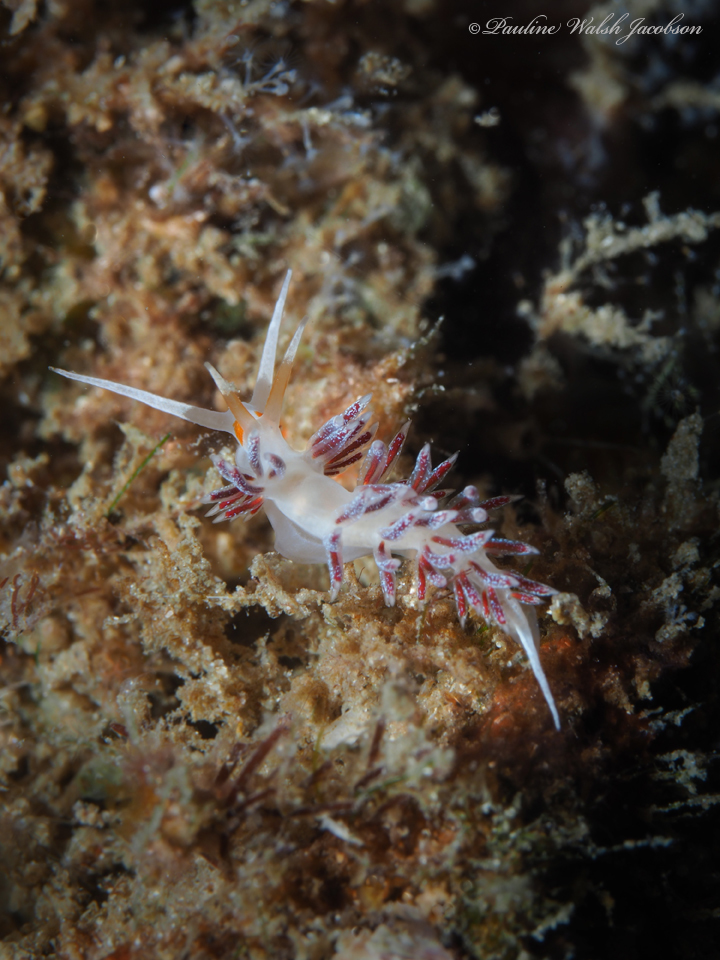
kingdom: Animalia
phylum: Mollusca
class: Gastropoda
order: Nudibranchia
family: Facelinidae
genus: Cratena
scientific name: Cratena minor
